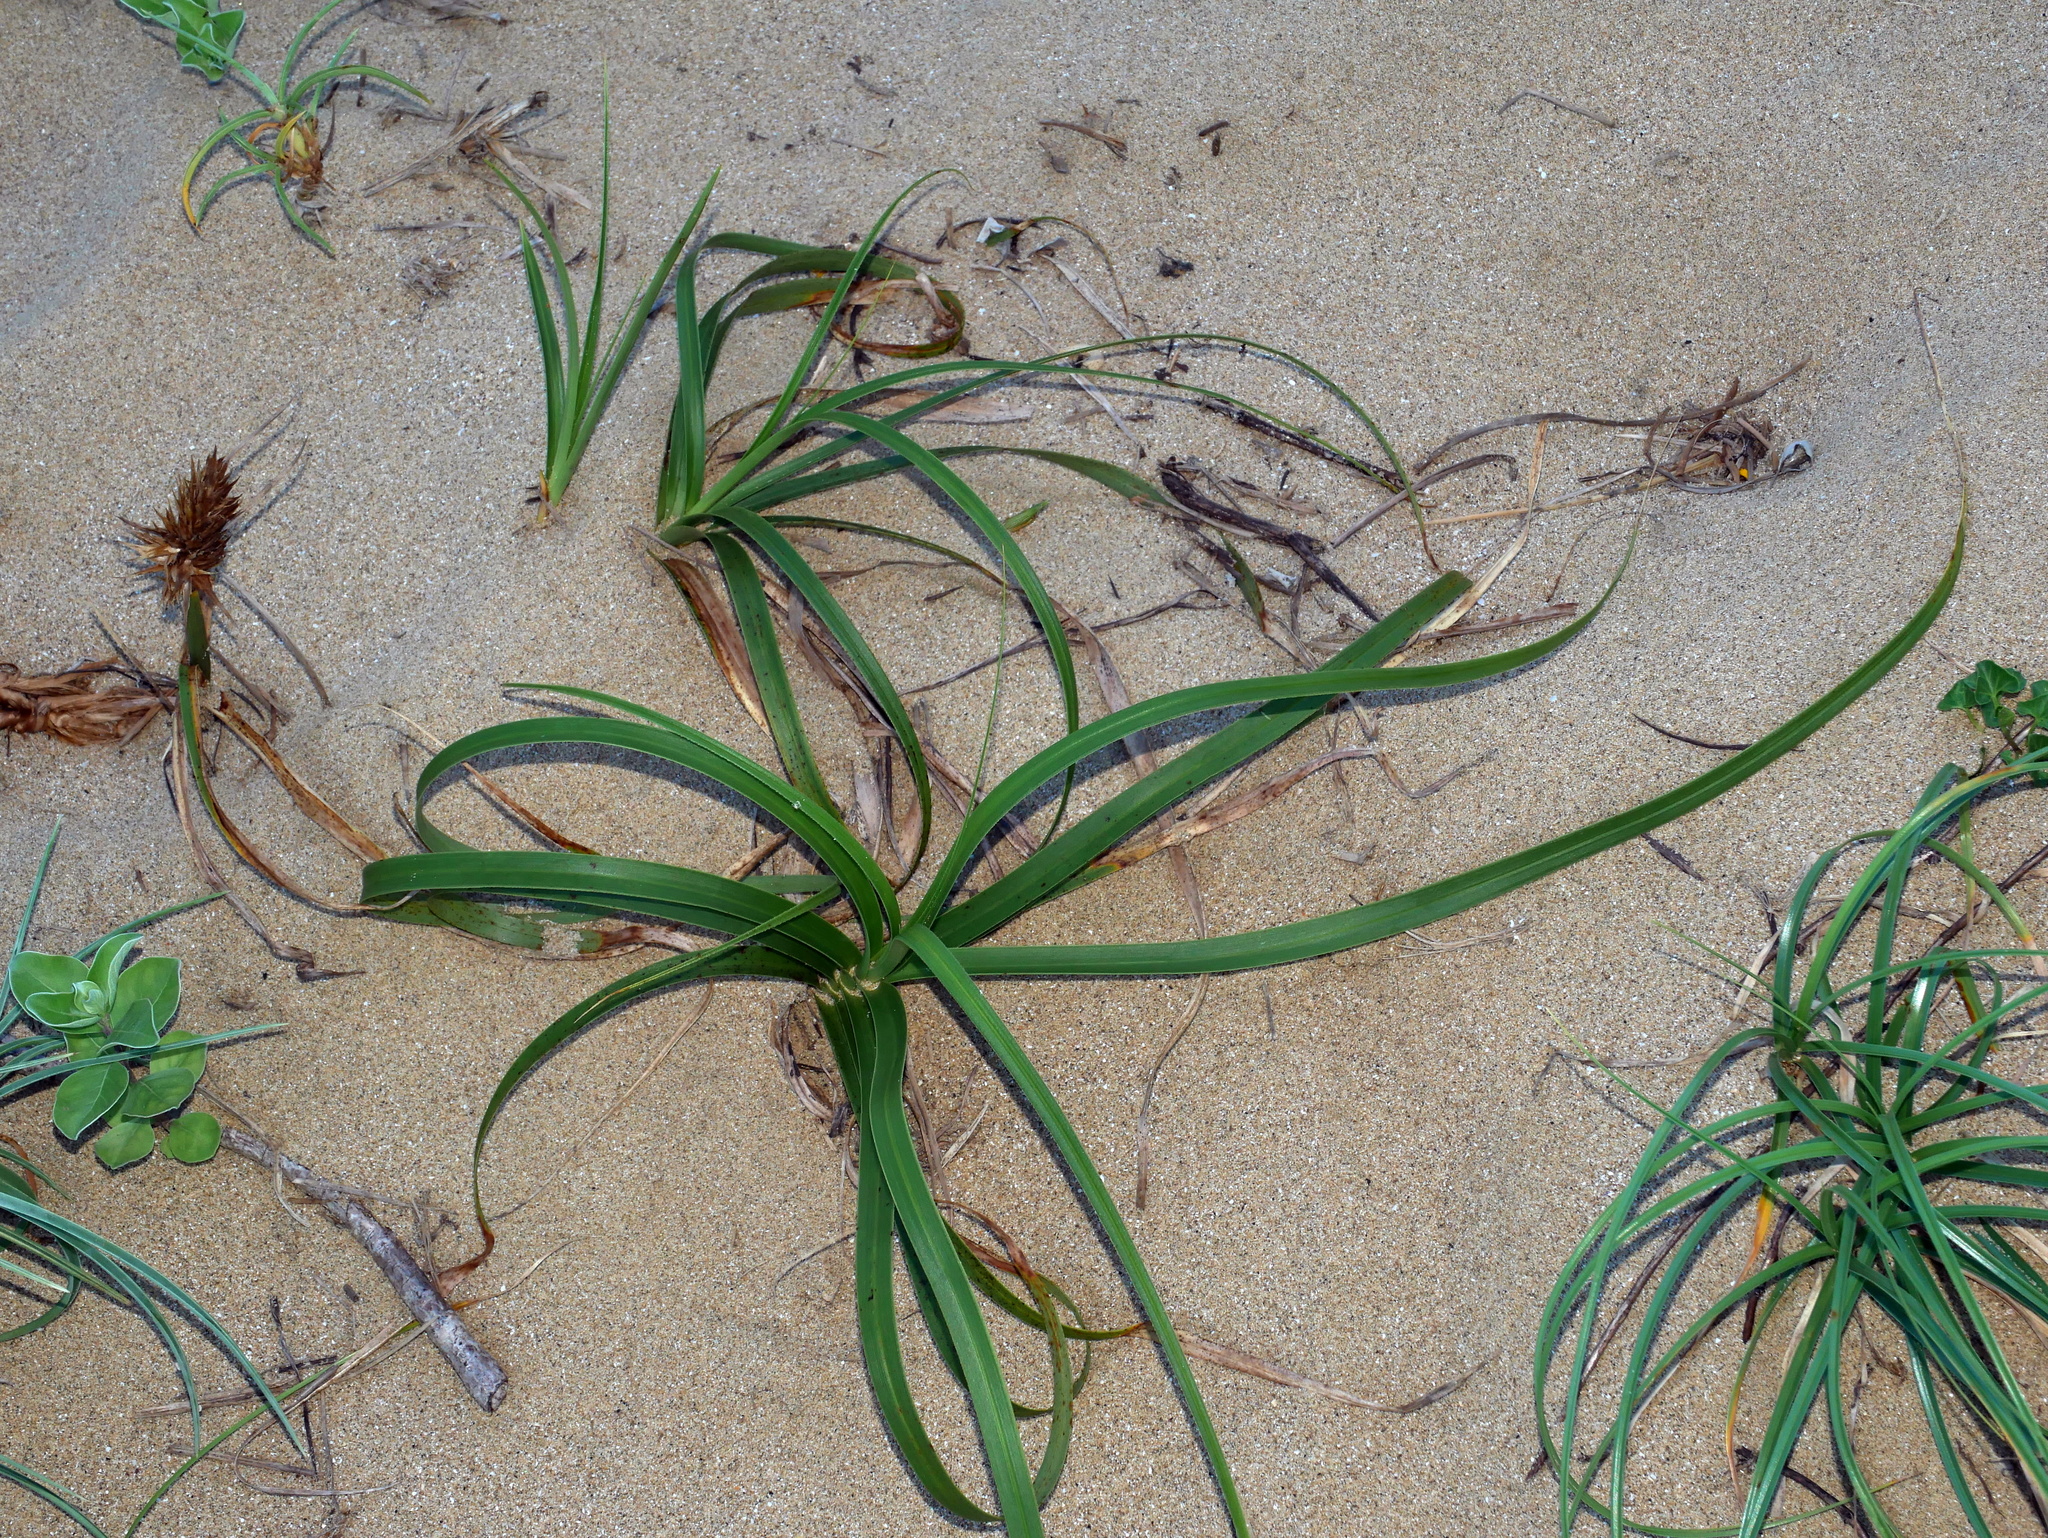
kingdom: Plantae
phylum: Tracheophyta
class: Liliopsida
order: Poales
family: Cyperaceae
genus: Carex
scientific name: Carex kobomugi
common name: Japanese sedge
